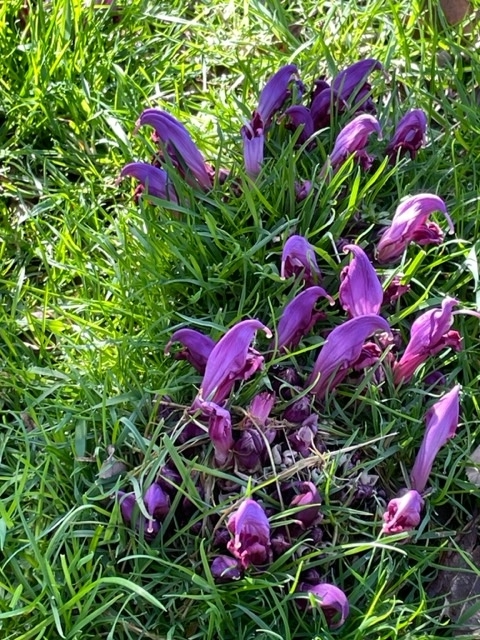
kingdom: Plantae
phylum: Tracheophyta
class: Magnoliopsida
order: Lamiales
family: Orobanchaceae
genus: Lathraea
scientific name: Lathraea clandestina
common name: Purple toothwort
